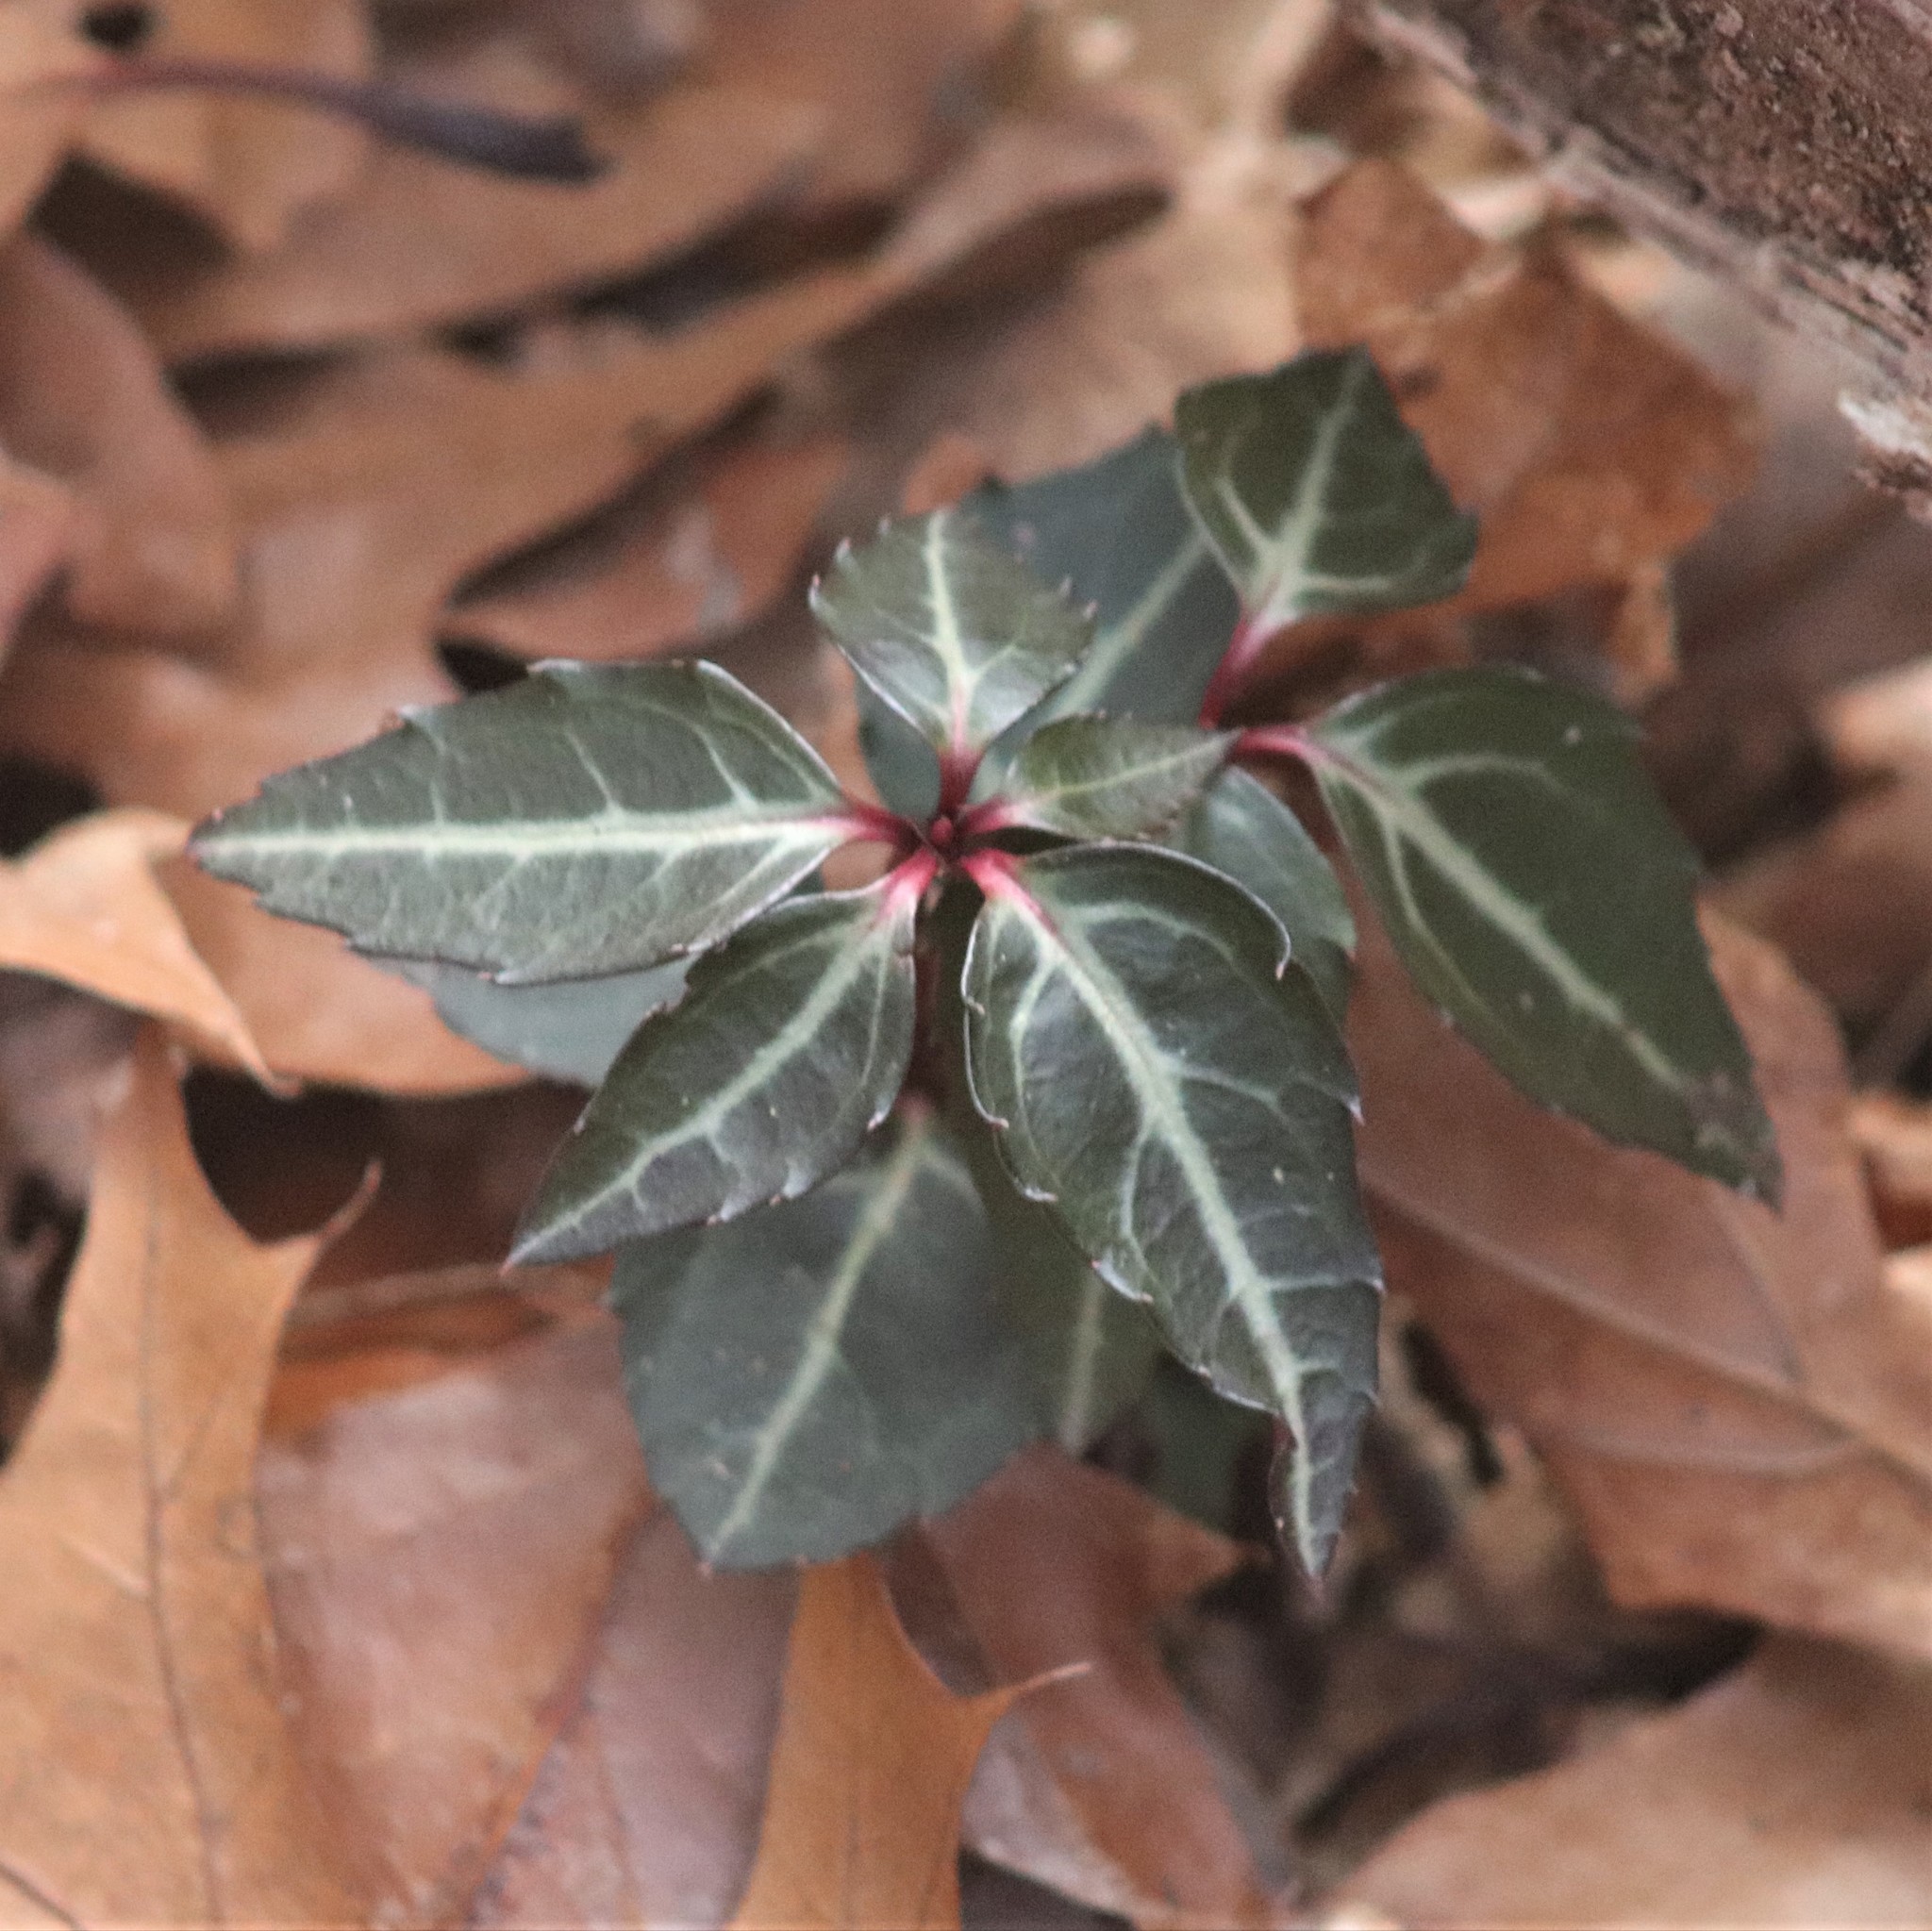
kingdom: Plantae
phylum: Tracheophyta
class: Magnoliopsida
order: Ericales
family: Ericaceae
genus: Chimaphila
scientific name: Chimaphila maculata
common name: Spotted pipsissewa
